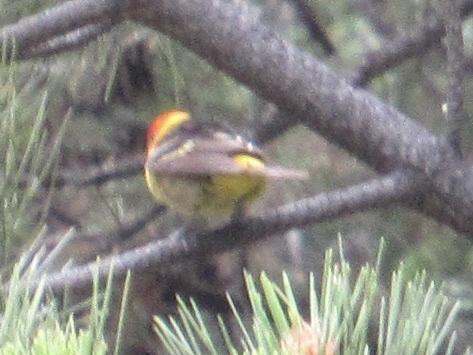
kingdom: Animalia
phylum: Chordata
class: Aves
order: Passeriformes
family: Cardinalidae
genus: Piranga
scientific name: Piranga ludoviciana
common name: Western tanager
